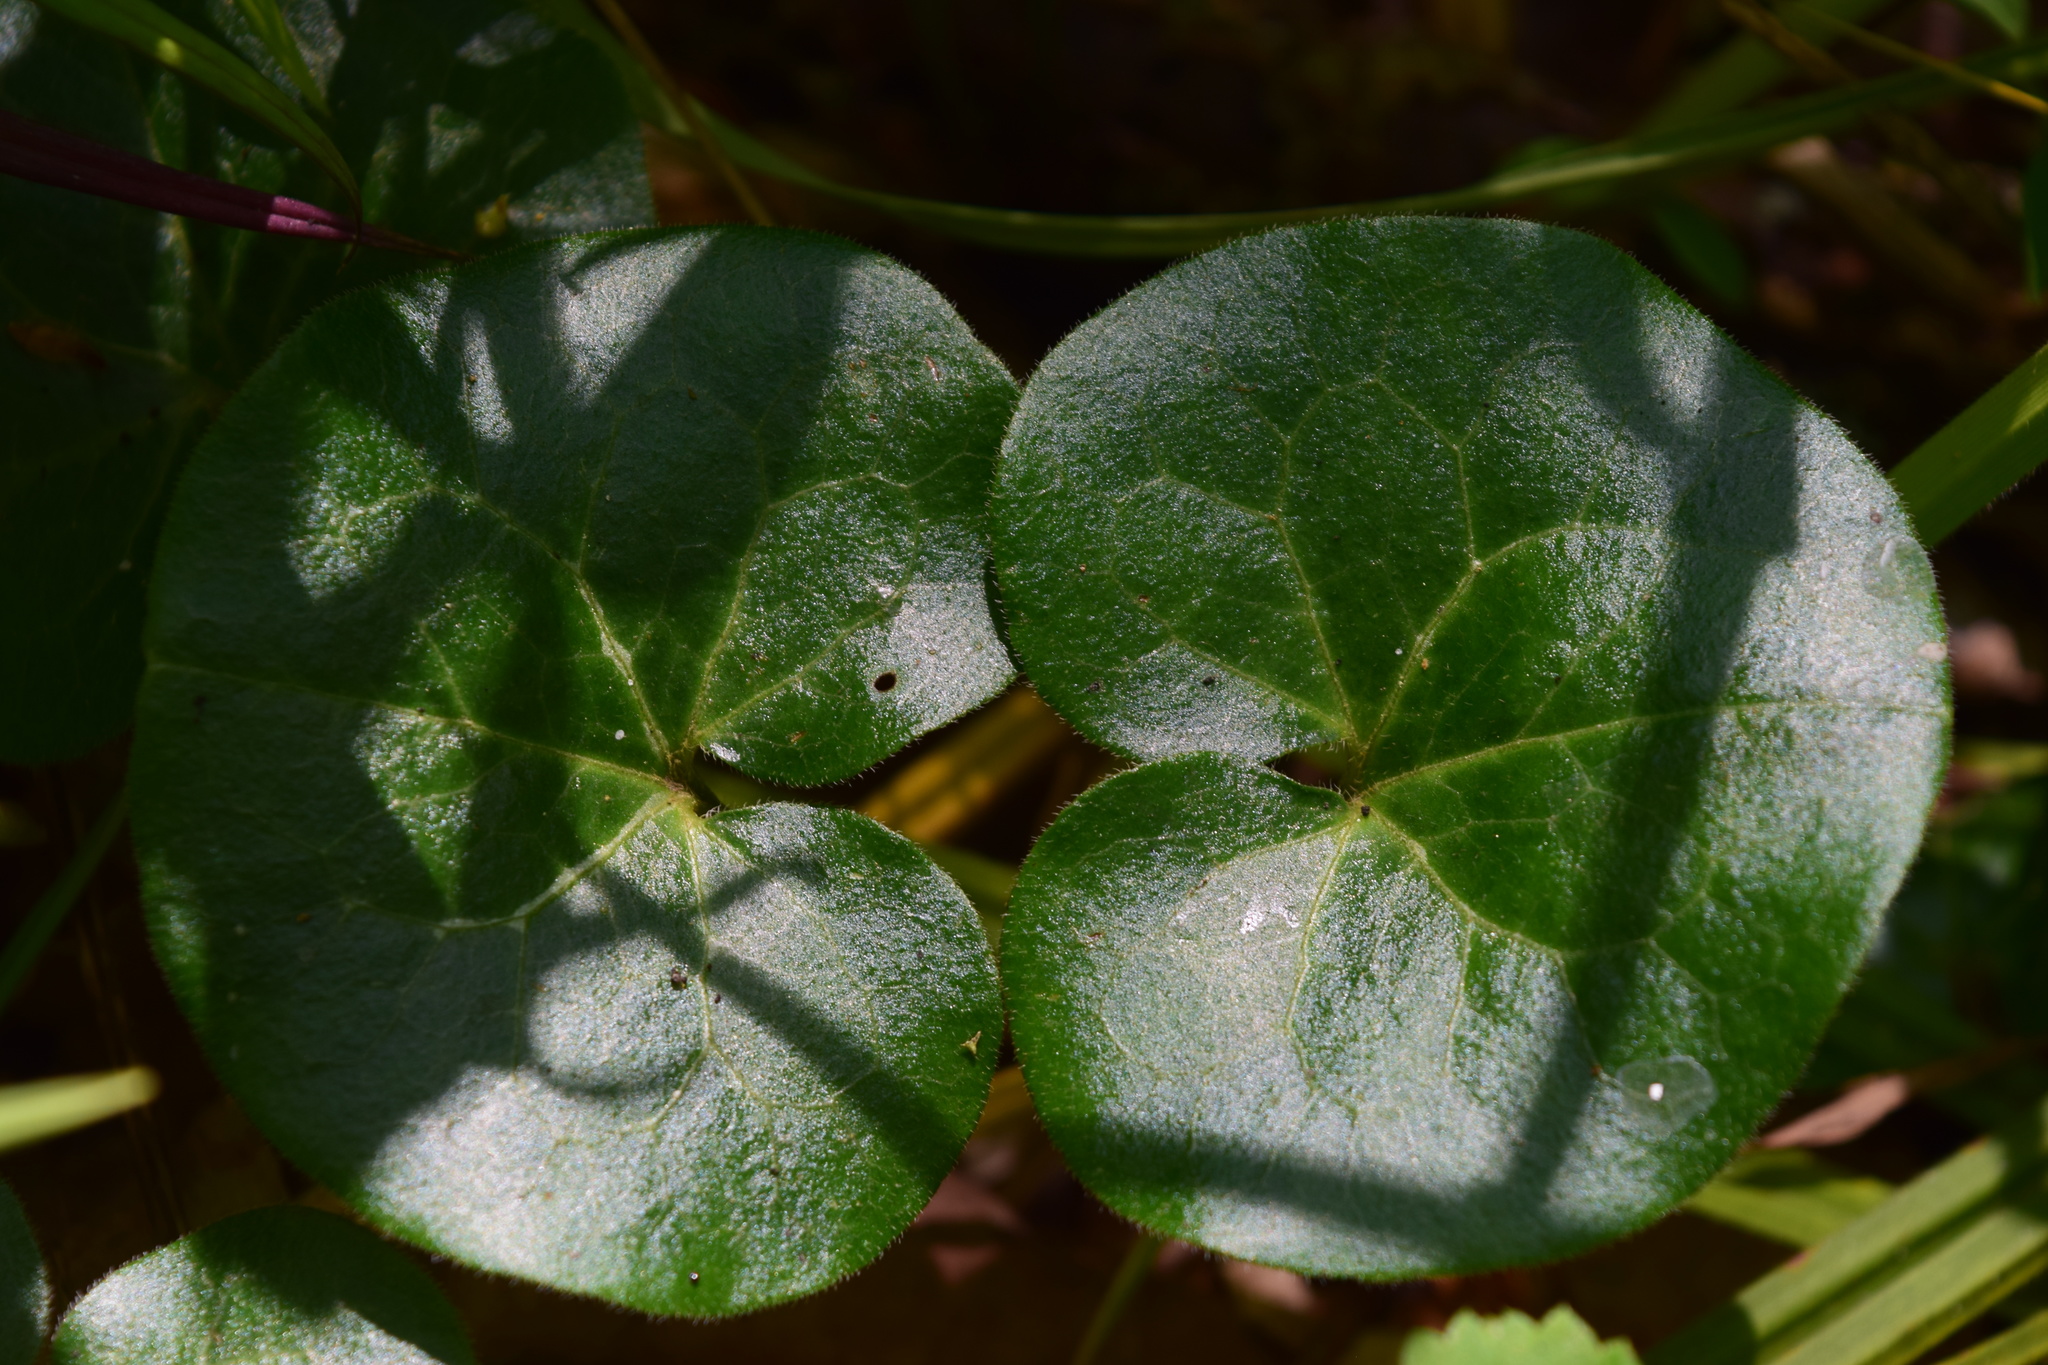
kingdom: Plantae
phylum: Tracheophyta
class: Magnoliopsida
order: Piperales
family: Aristolochiaceae
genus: Asarum
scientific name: Asarum europaeum
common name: Asarabacca
